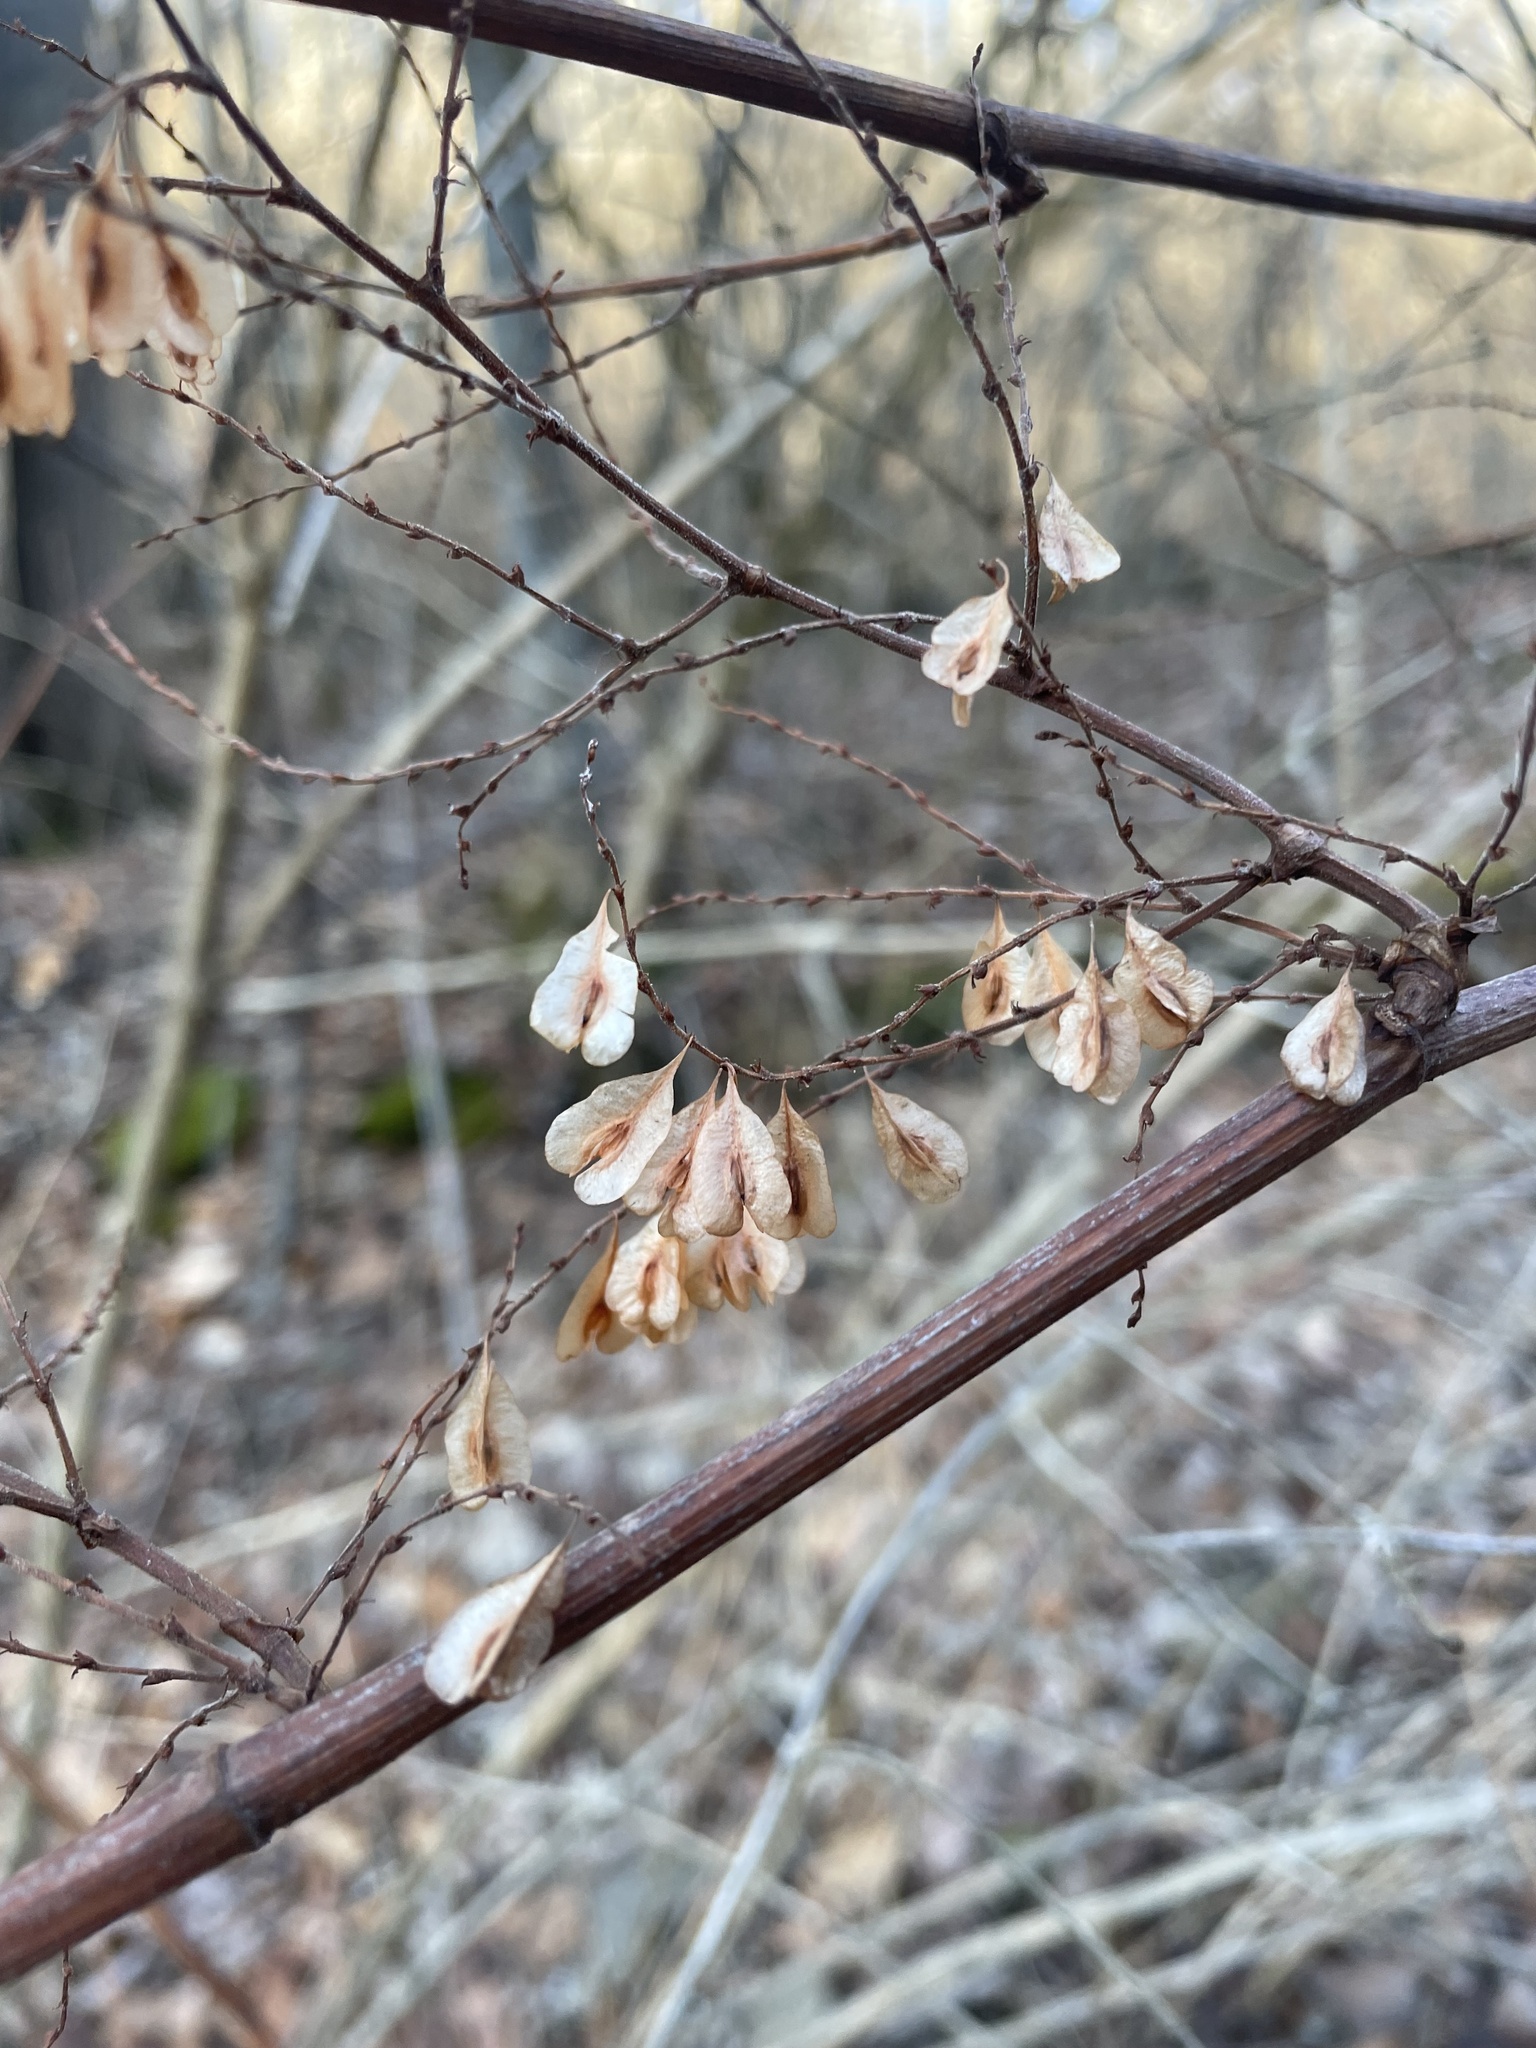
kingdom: Plantae
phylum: Tracheophyta
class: Magnoliopsida
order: Caryophyllales
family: Polygonaceae
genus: Reynoutria
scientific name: Reynoutria japonica
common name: Japanese knotweed
